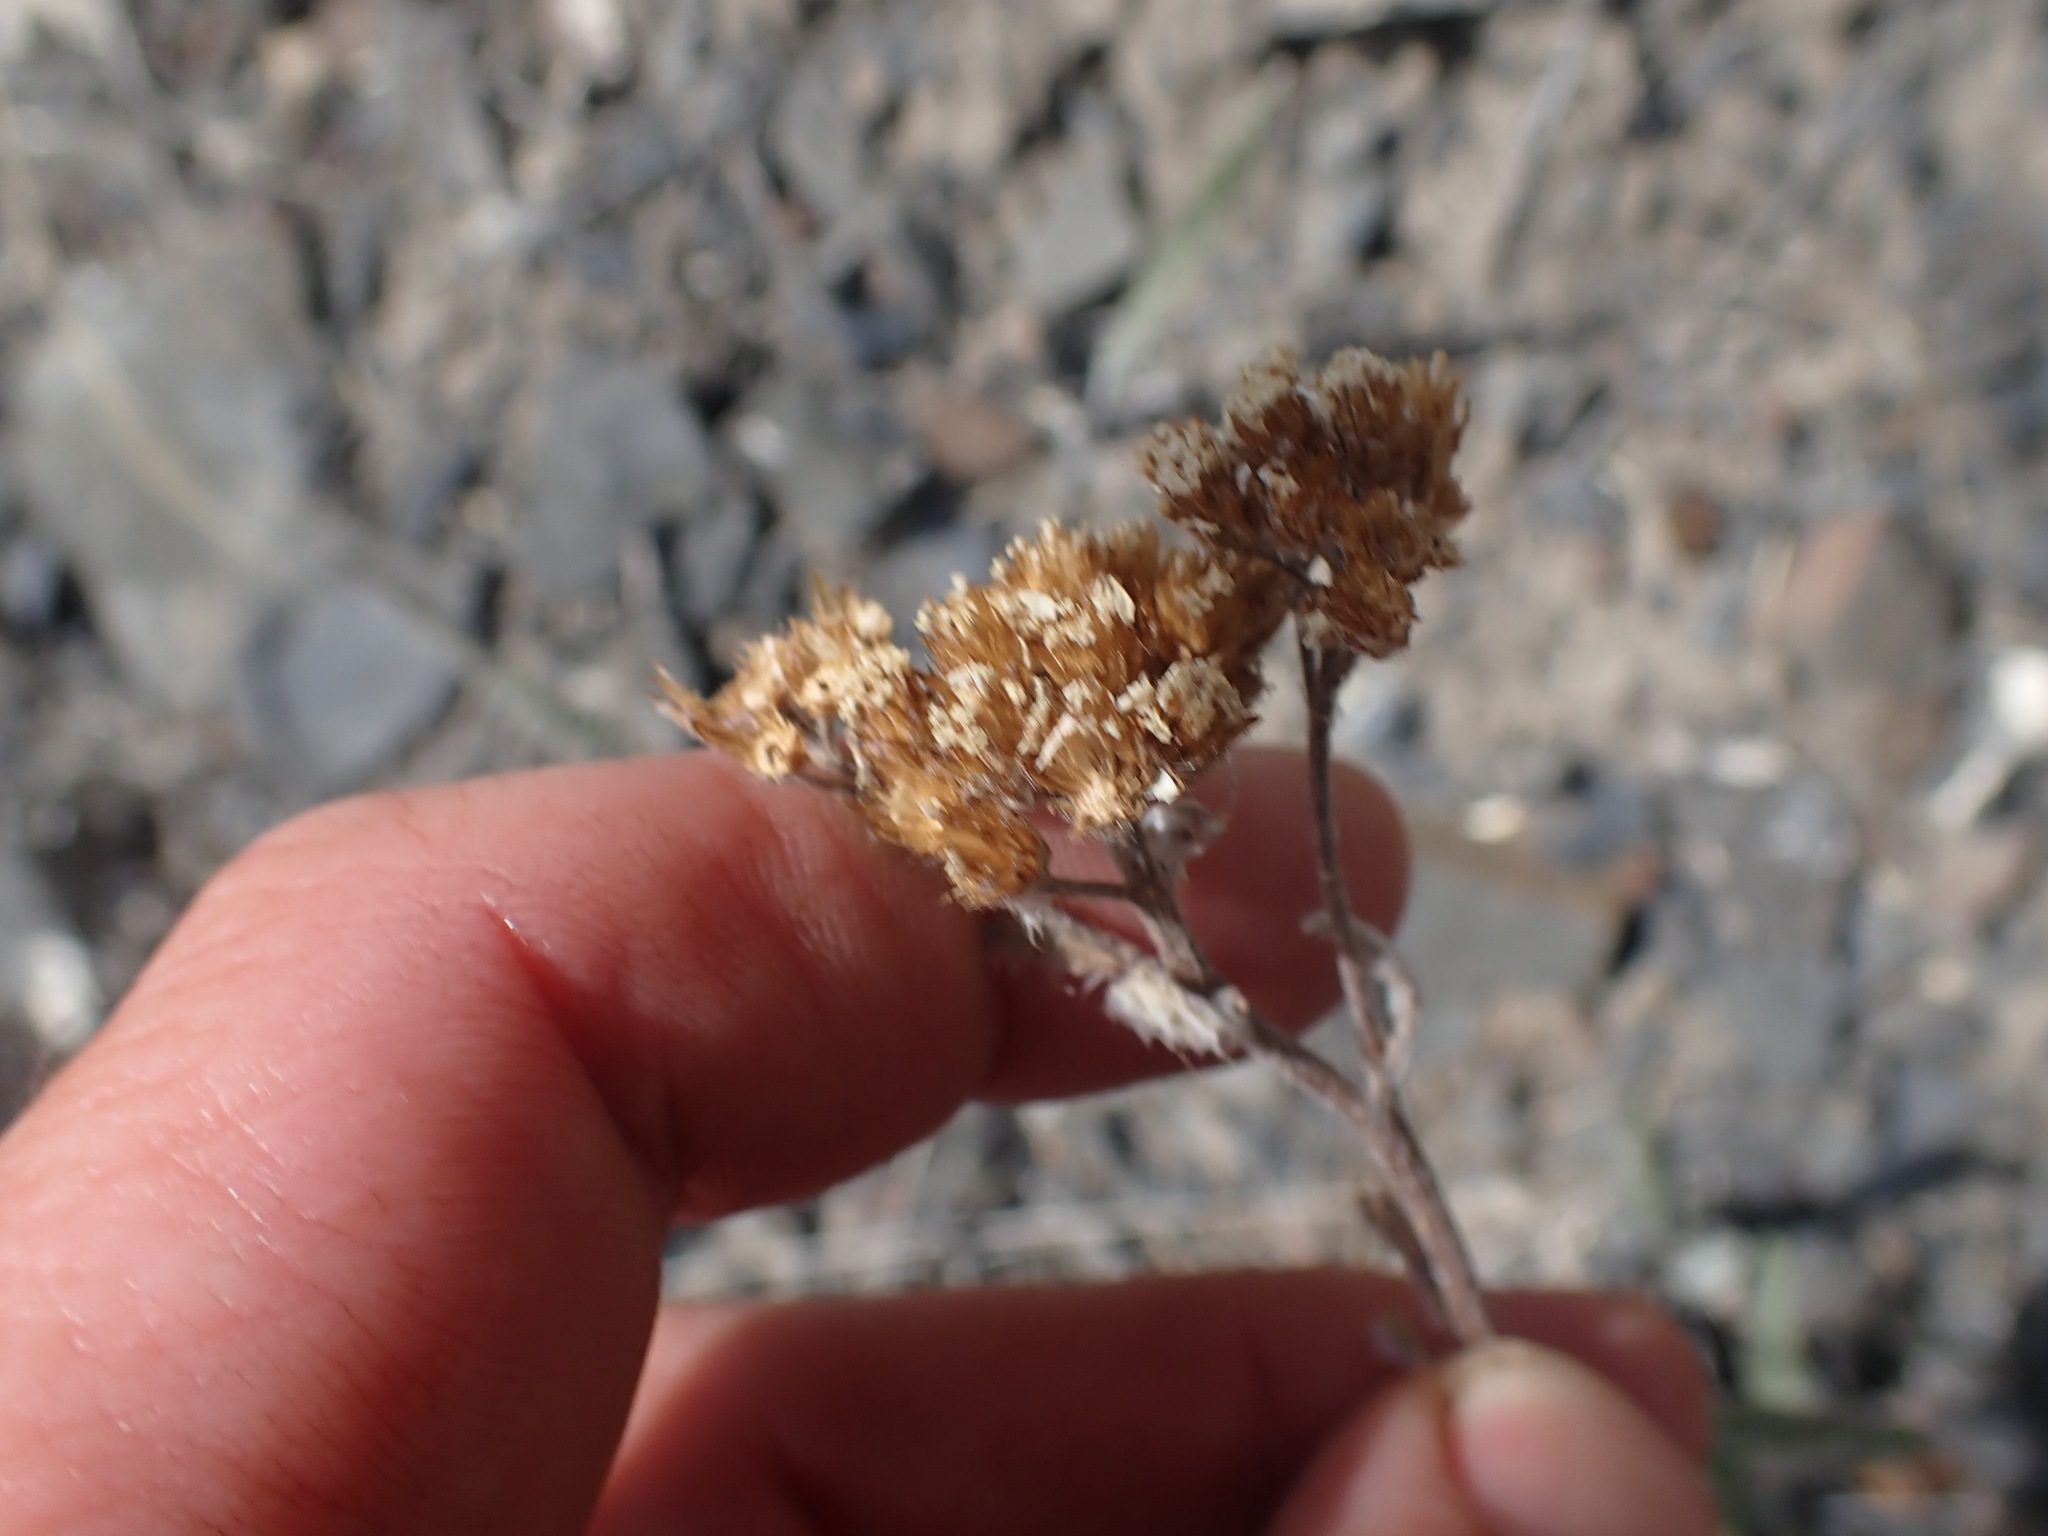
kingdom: Plantae
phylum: Tracheophyta
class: Magnoliopsida
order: Asterales
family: Asteraceae
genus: Achillea
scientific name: Achillea millefolium
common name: Yarrow
